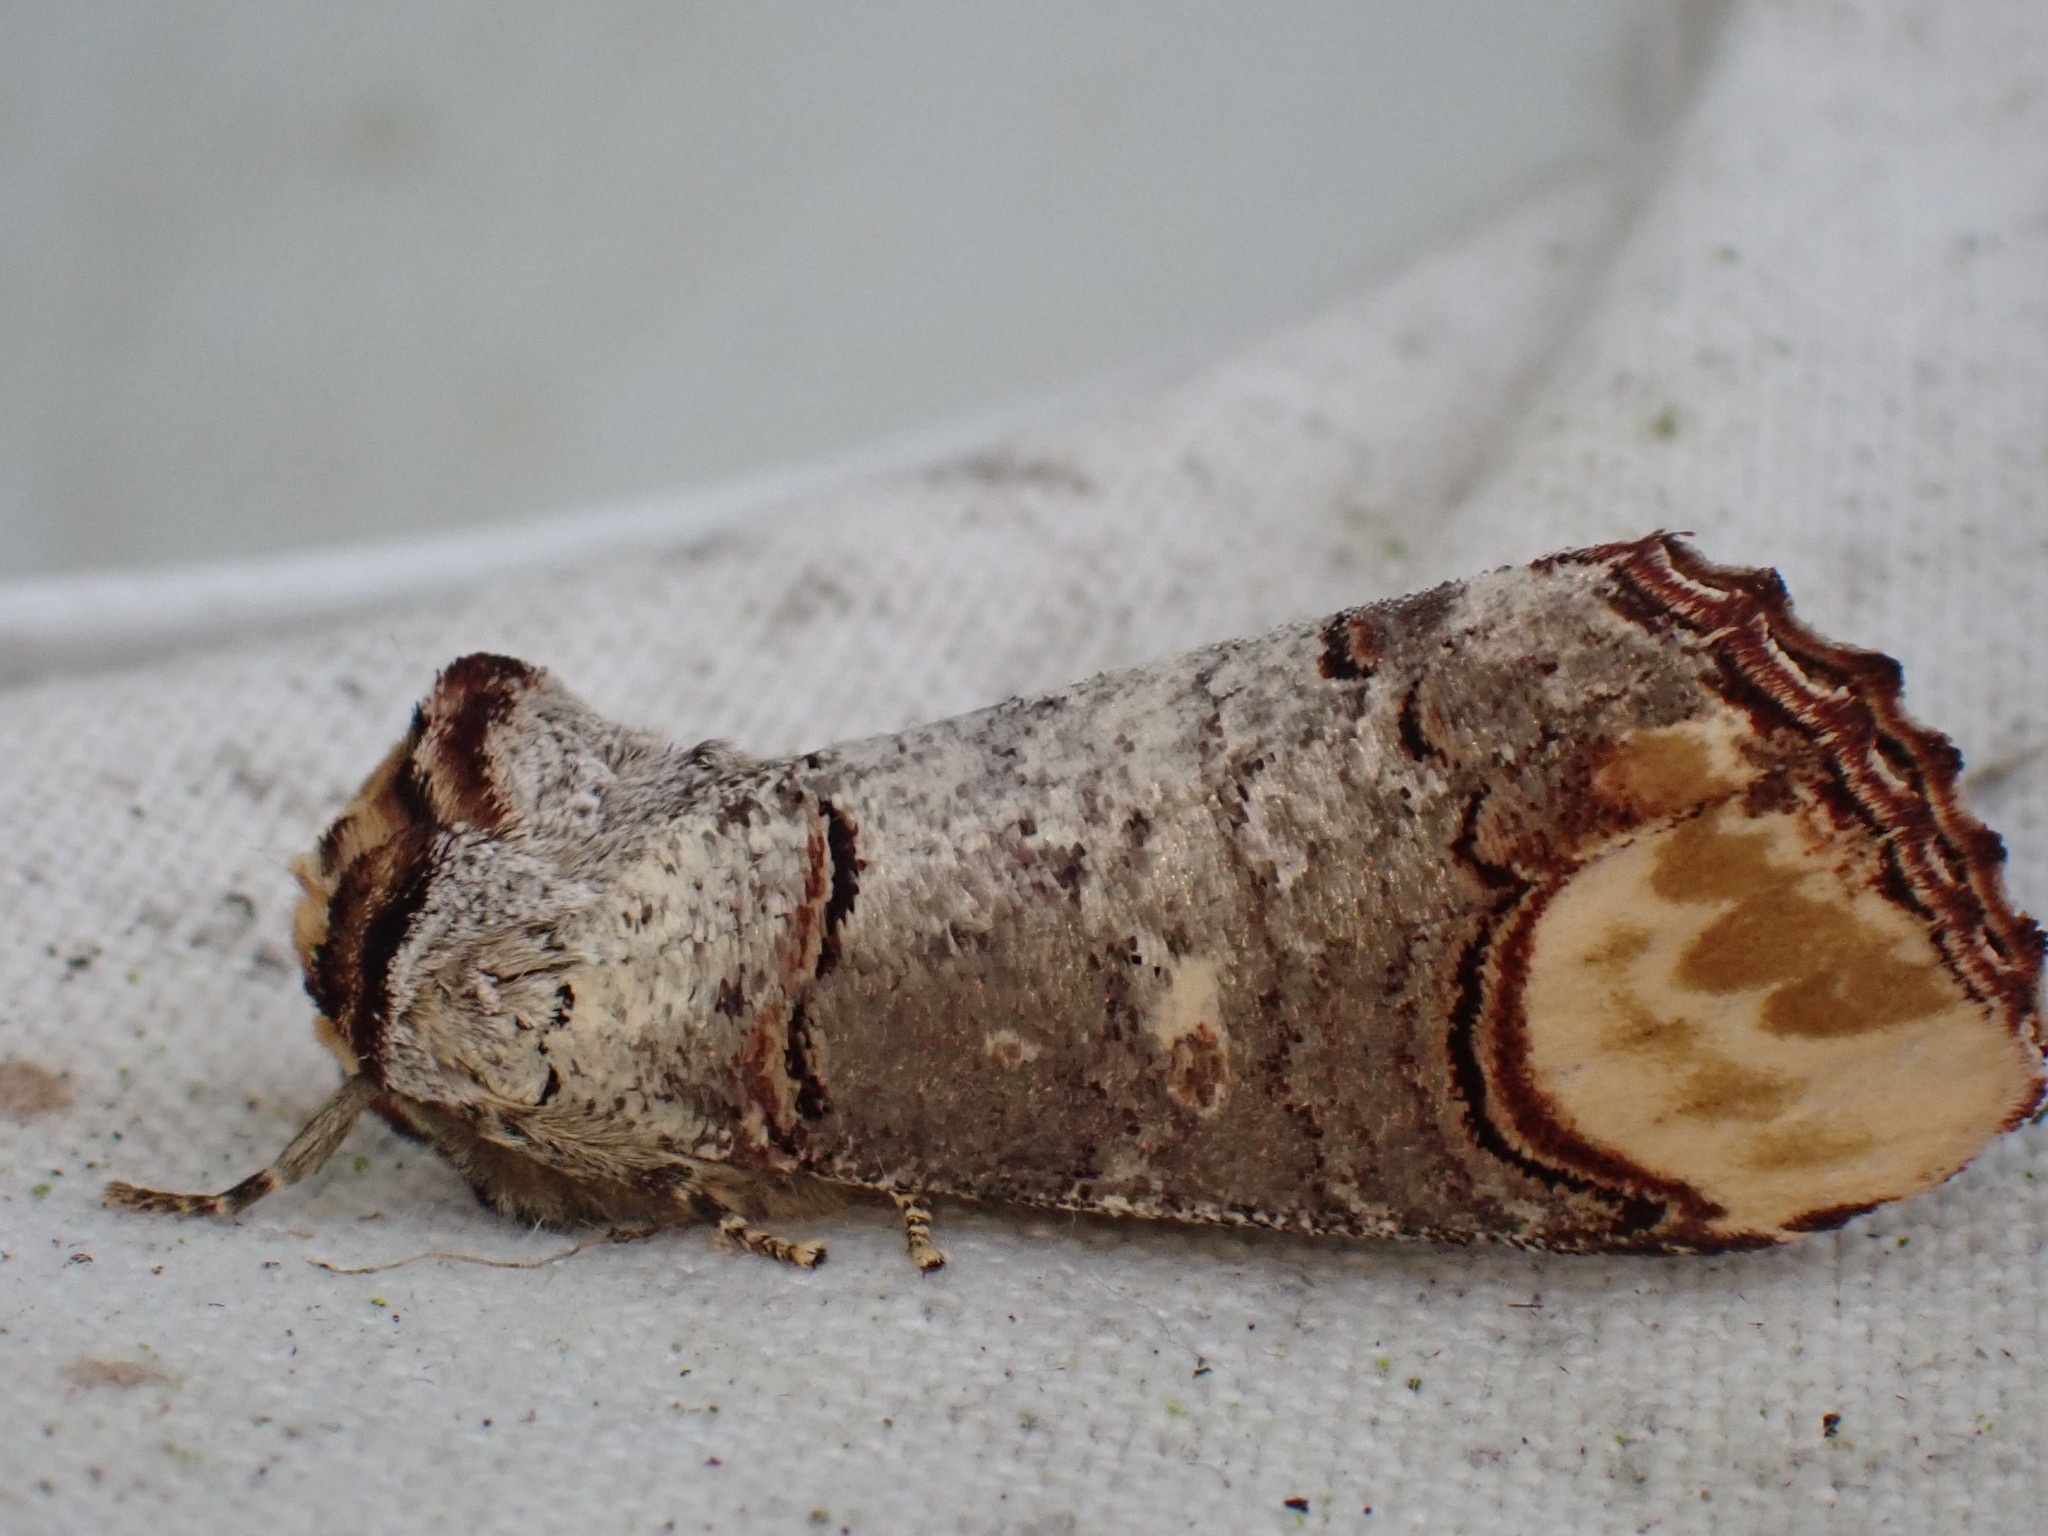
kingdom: Animalia
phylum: Arthropoda
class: Insecta
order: Lepidoptera
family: Notodontidae
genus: Phalera
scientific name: Phalera bucephala
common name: Buff-tip
